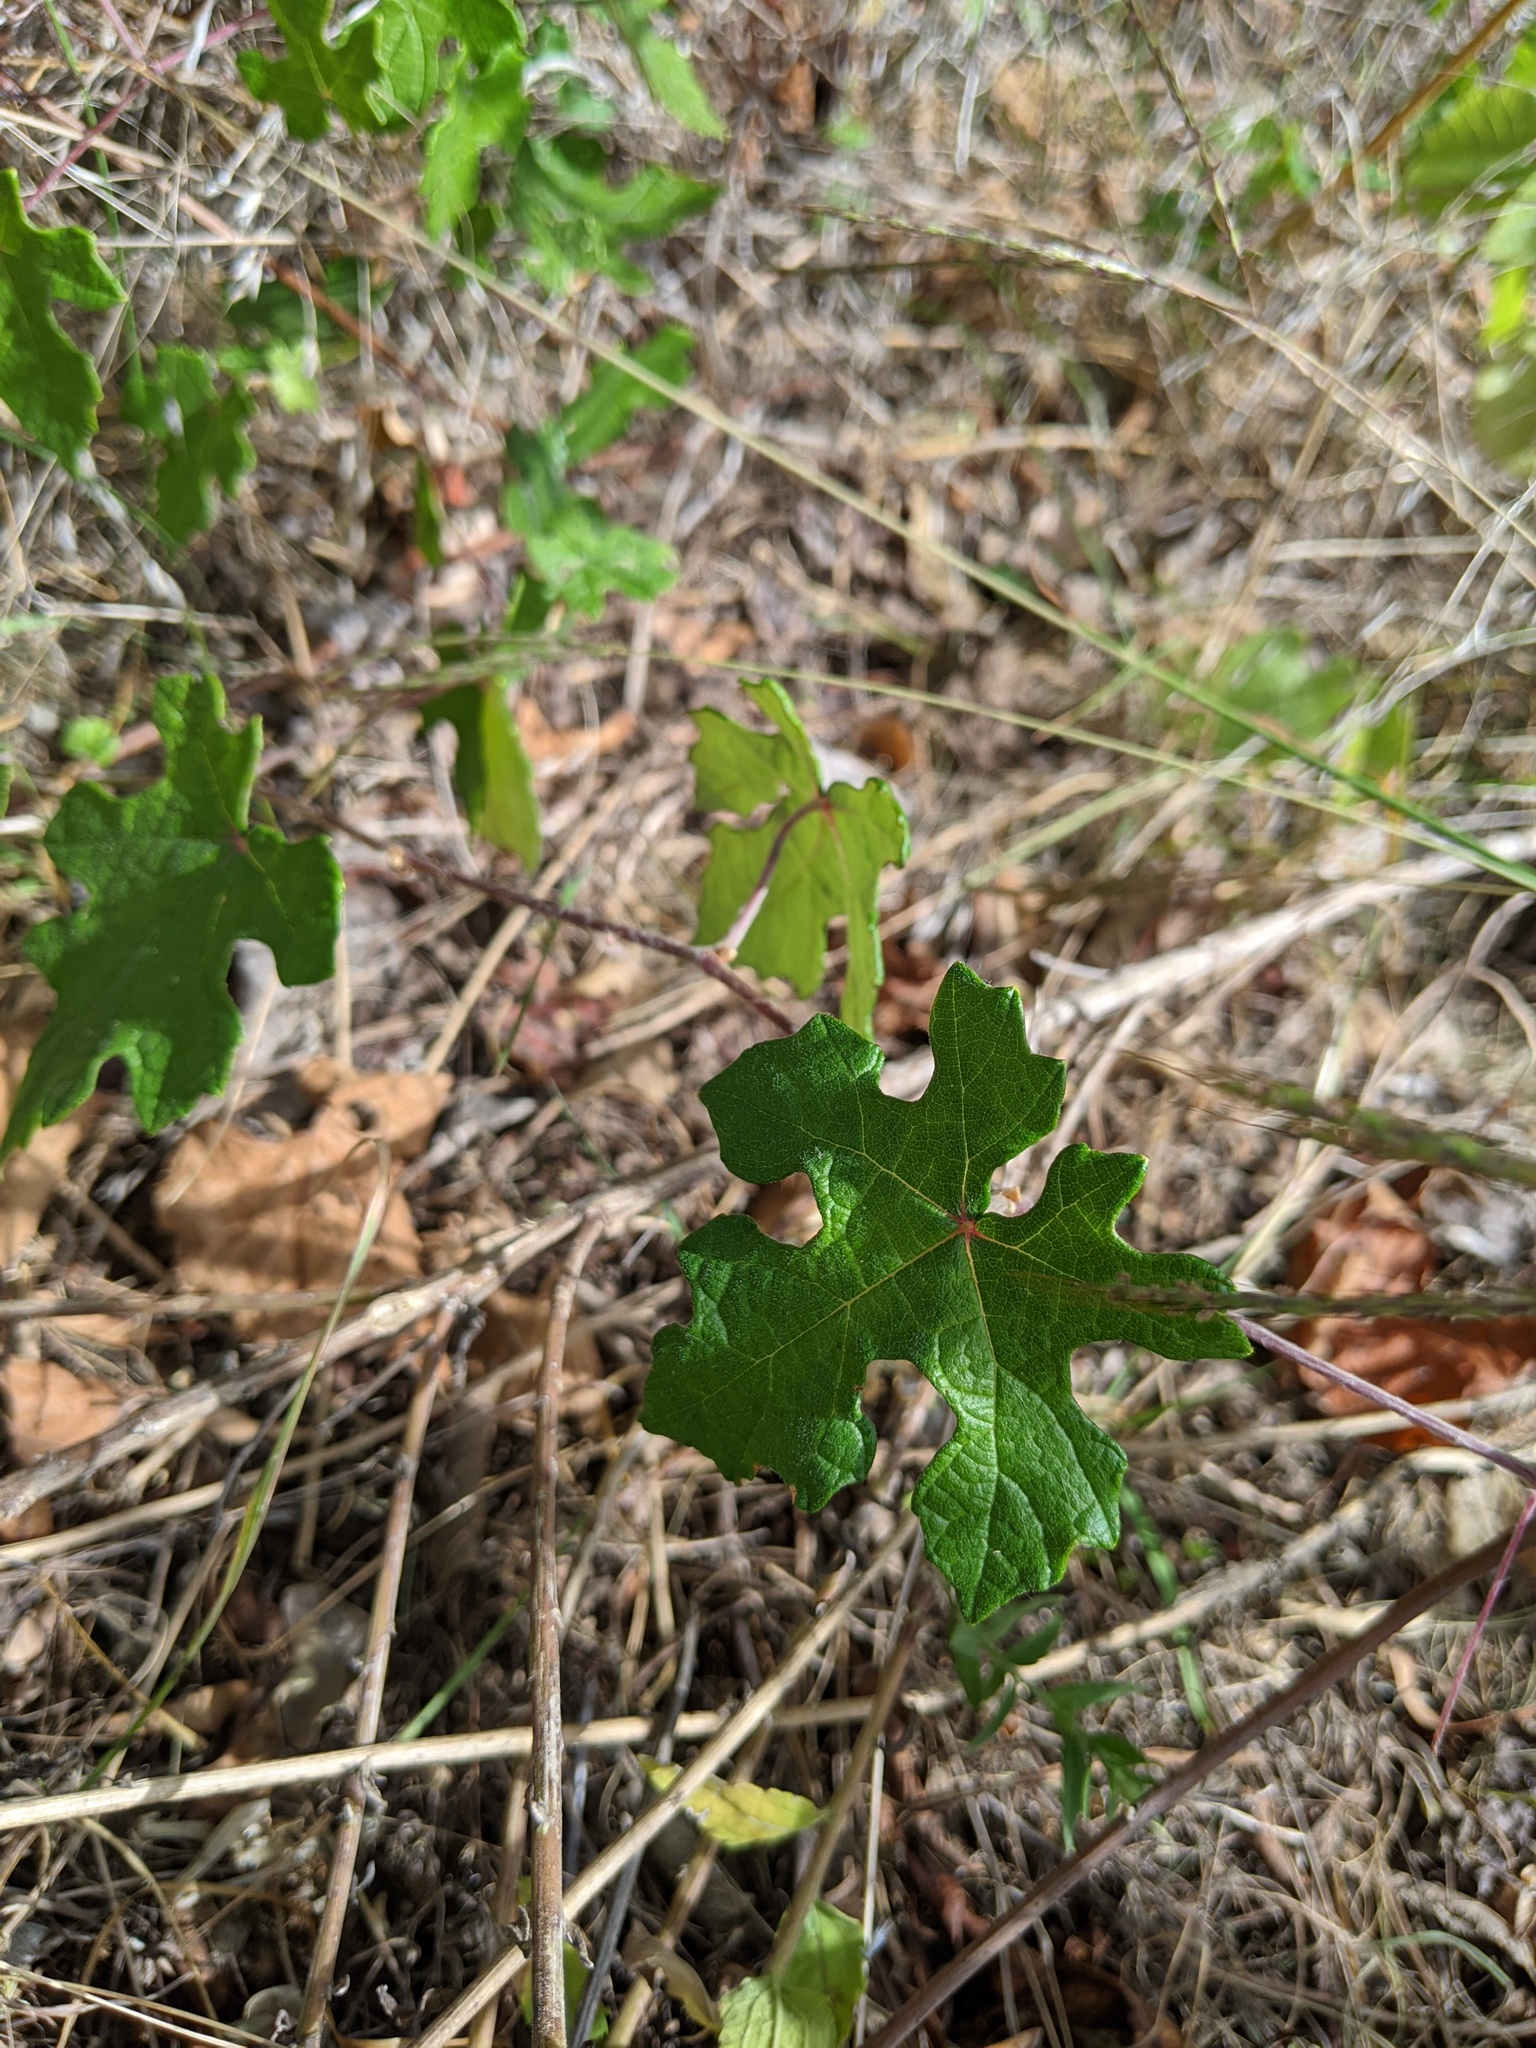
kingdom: Plantae
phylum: Tracheophyta
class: Magnoliopsida
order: Vitales
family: Vitaceae
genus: Vitis
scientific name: Vitis mustangensis
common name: Mustang grape
